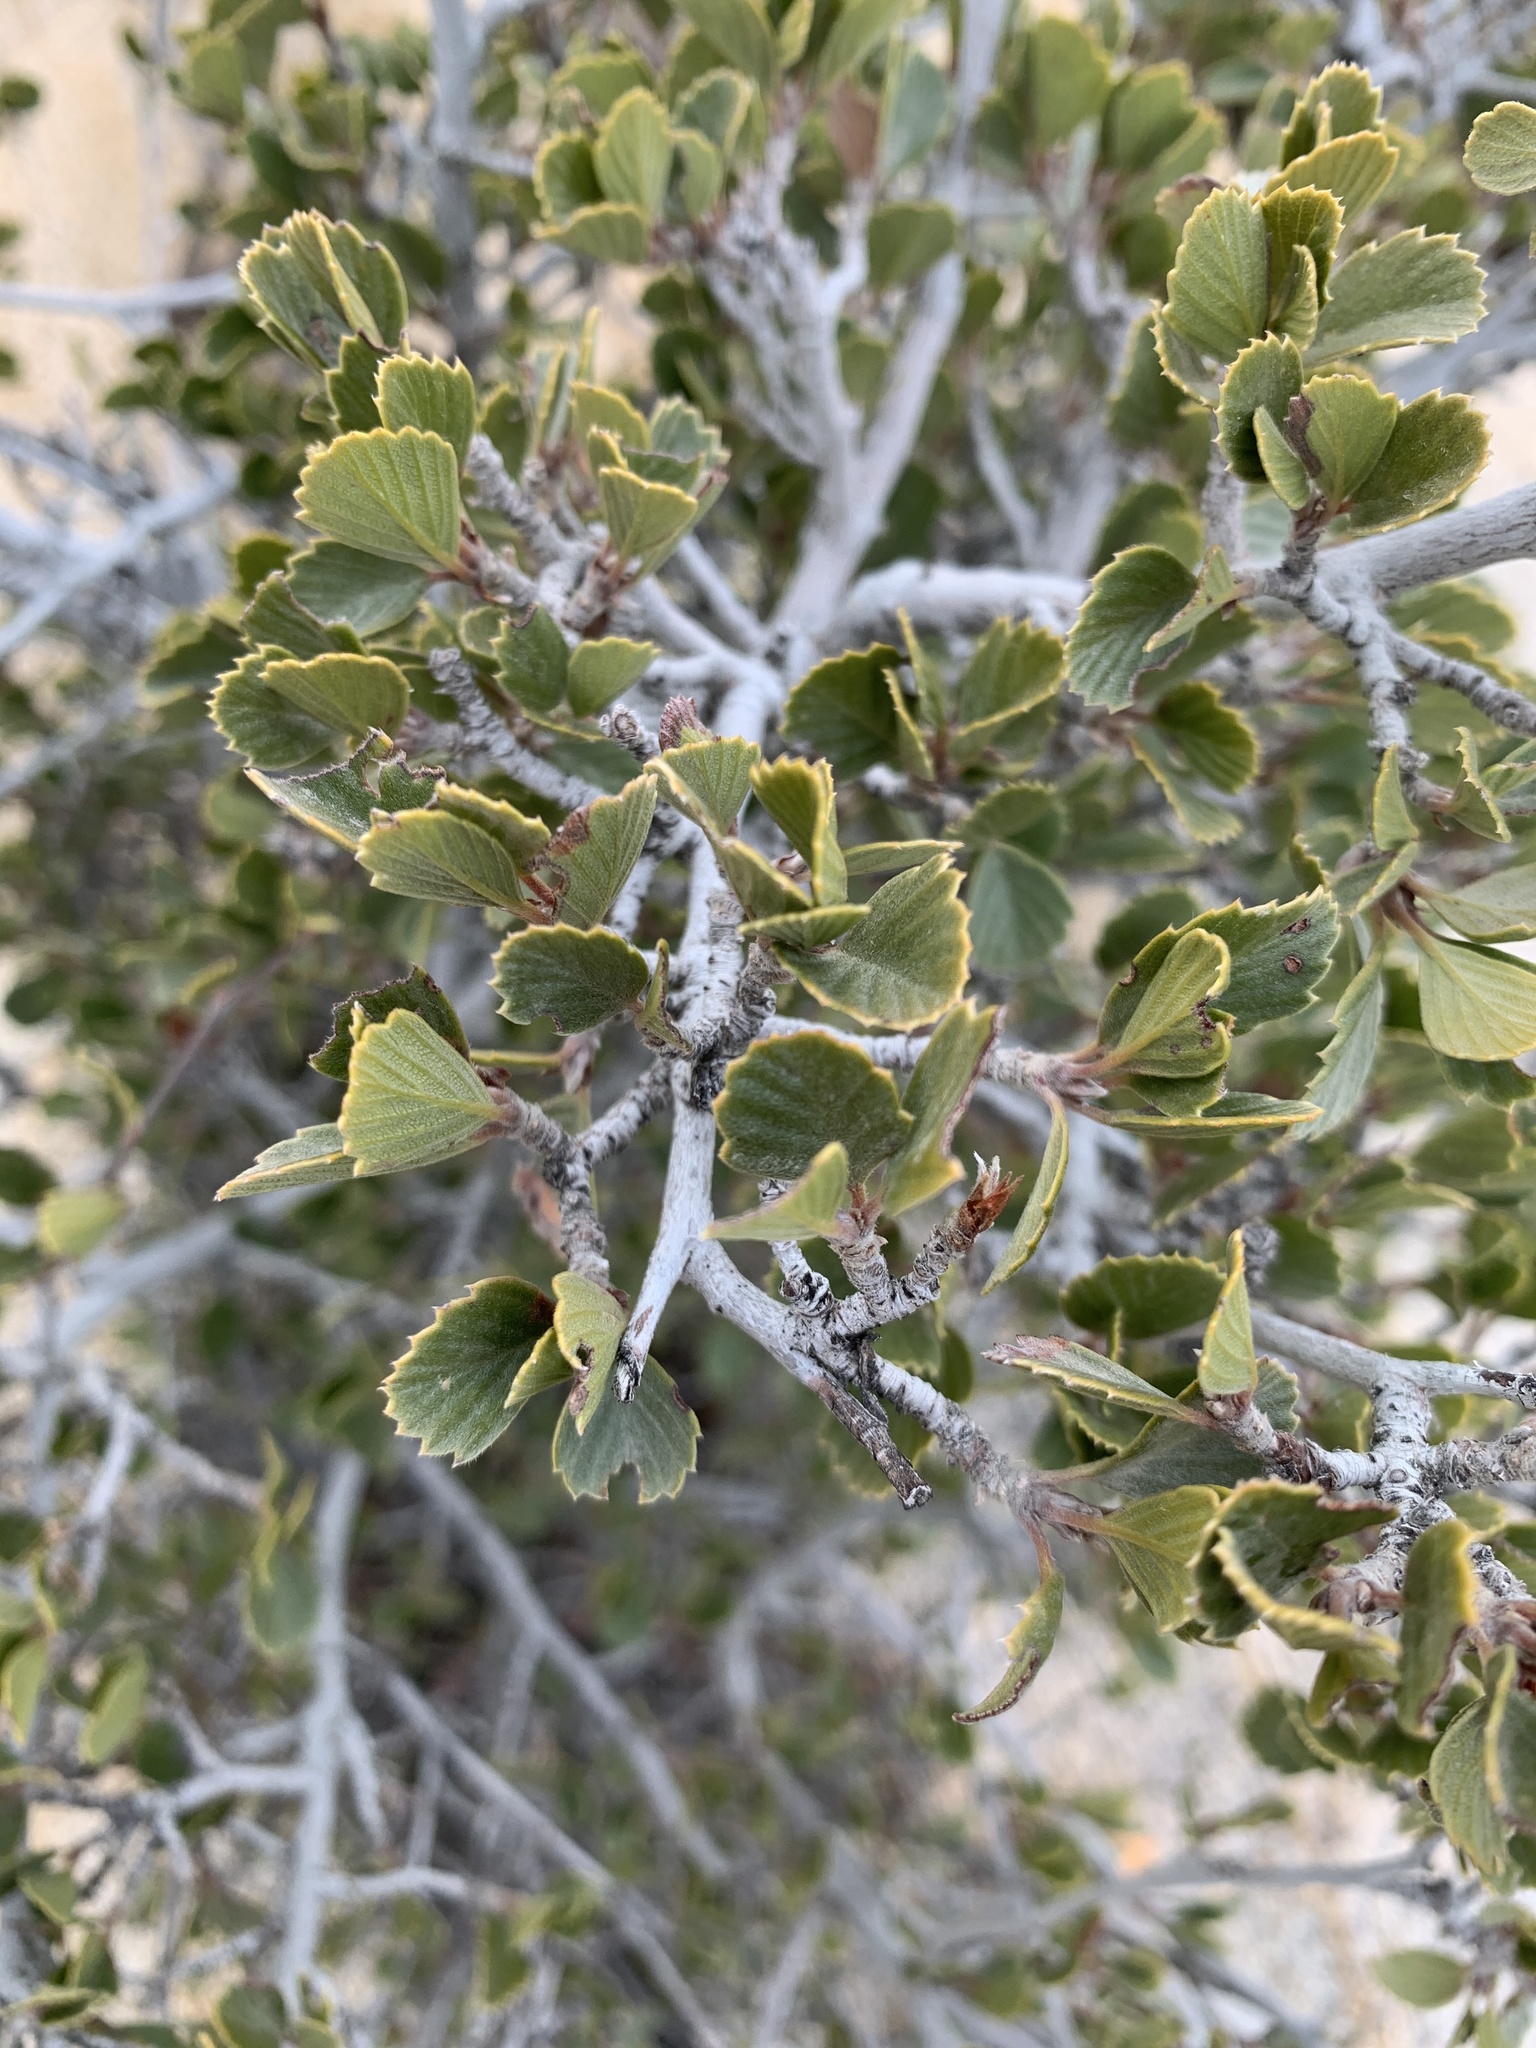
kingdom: Plantae
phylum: Tracheophyta
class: Magnoliopsida
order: Rosales
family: Rosaceae
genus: Cercocarpus
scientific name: Cercocarpus betuloides
